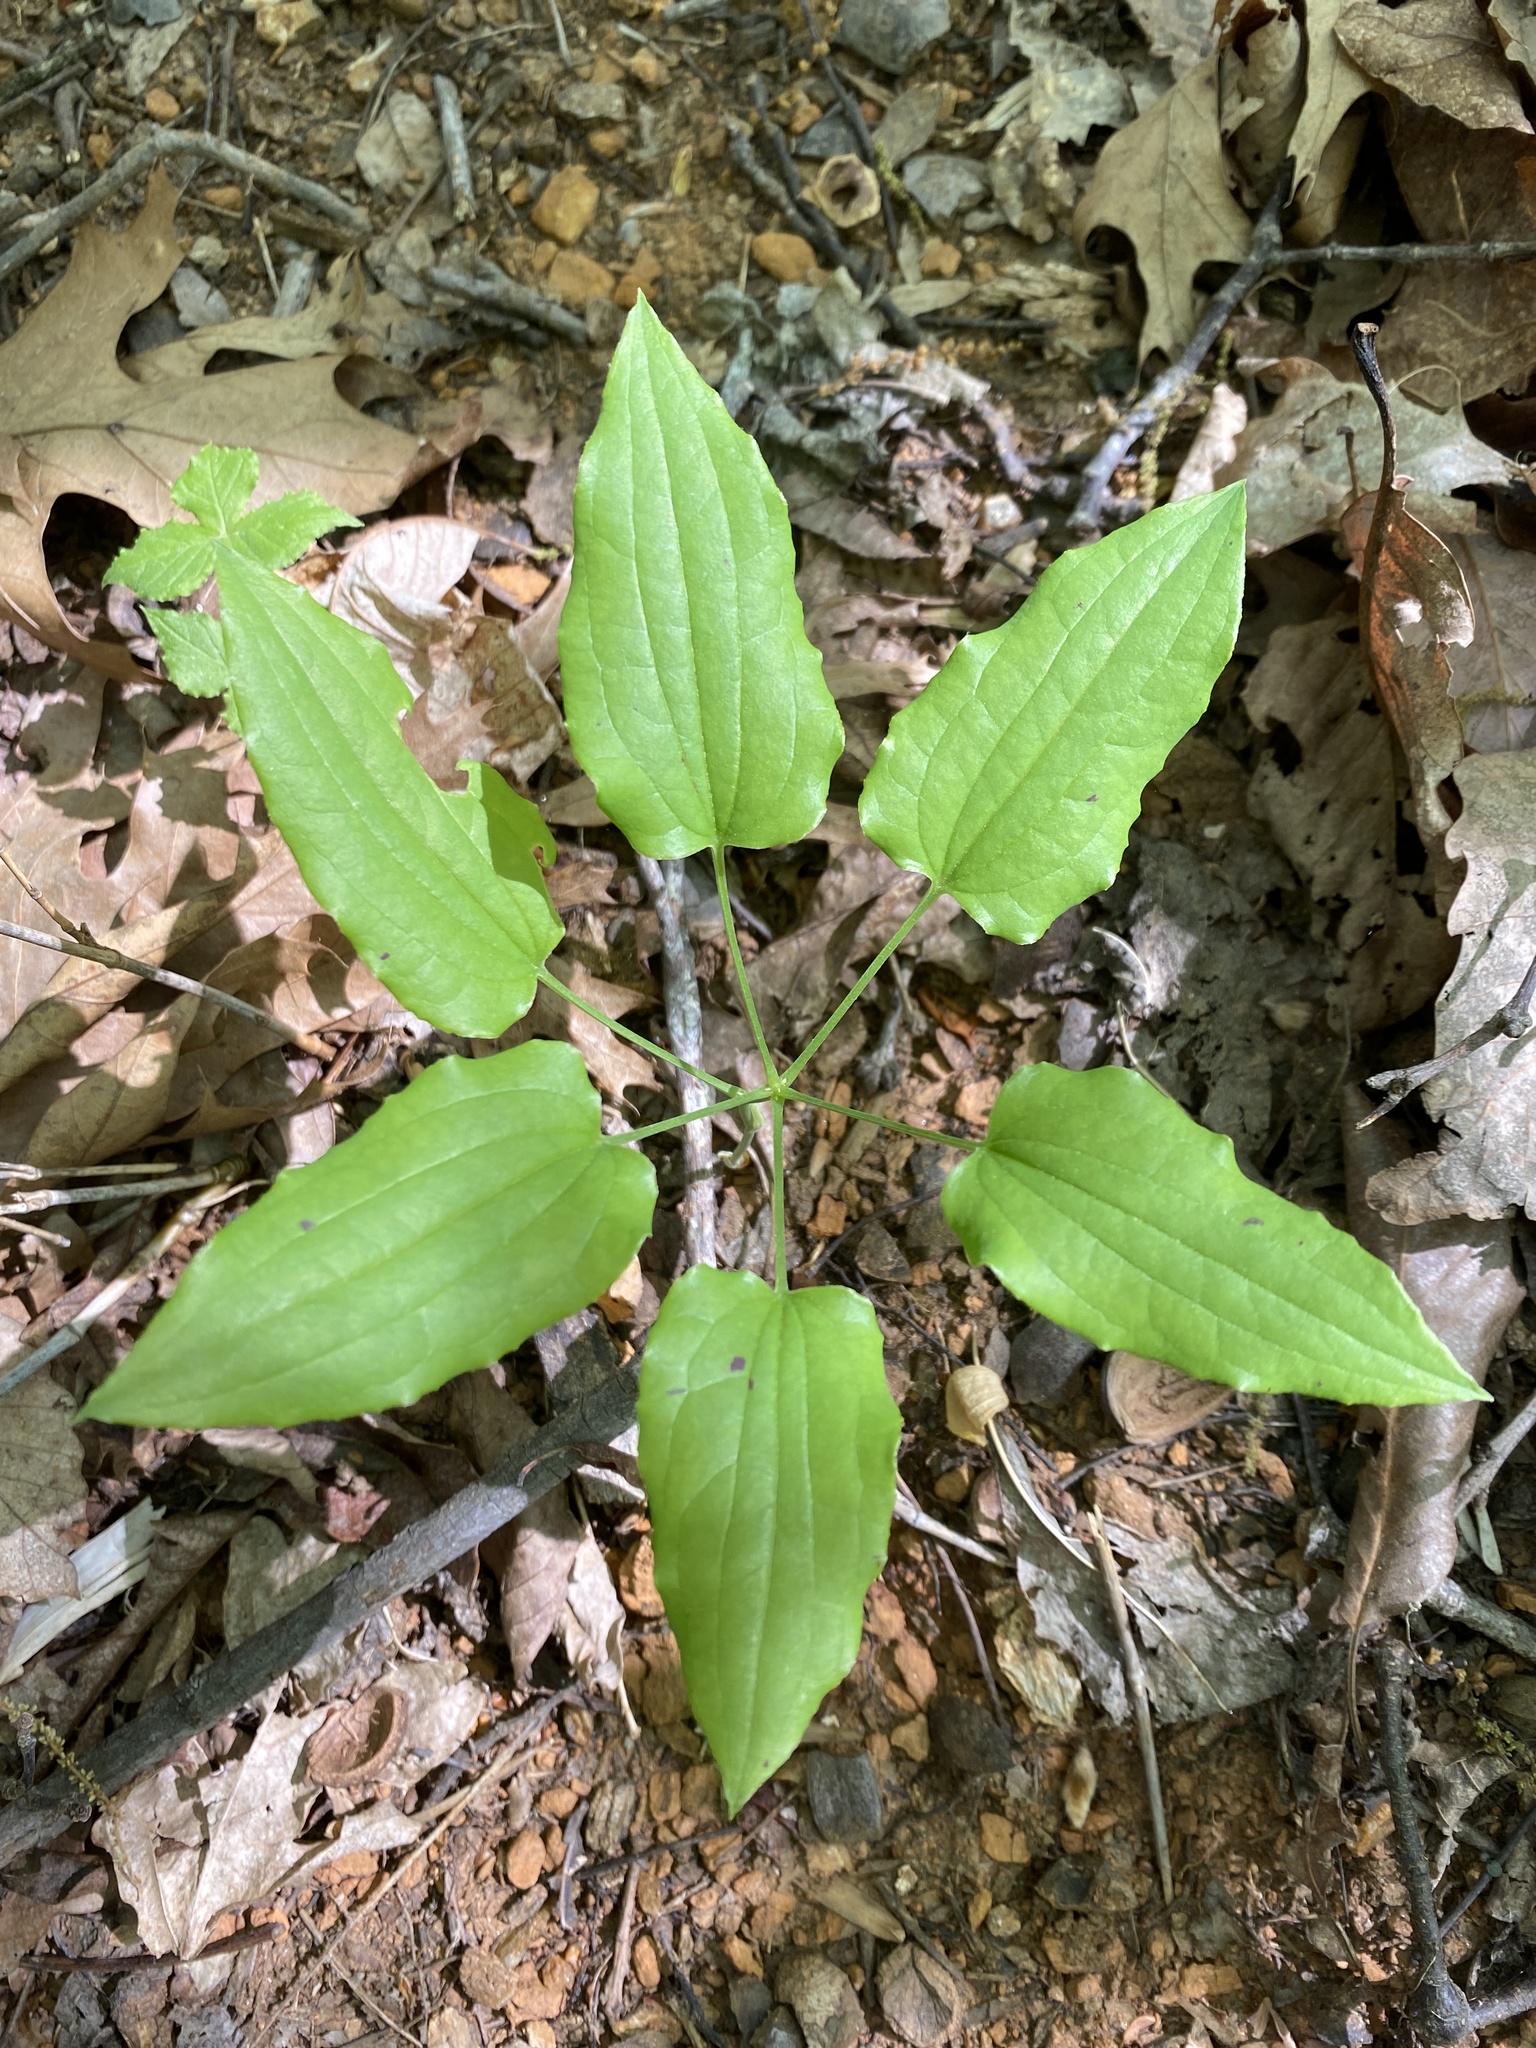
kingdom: Plantae
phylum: Tracheophyta
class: Liliopsida
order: Liliales
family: Smilacaceae
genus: Smilax
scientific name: Smilax biltmoreana
